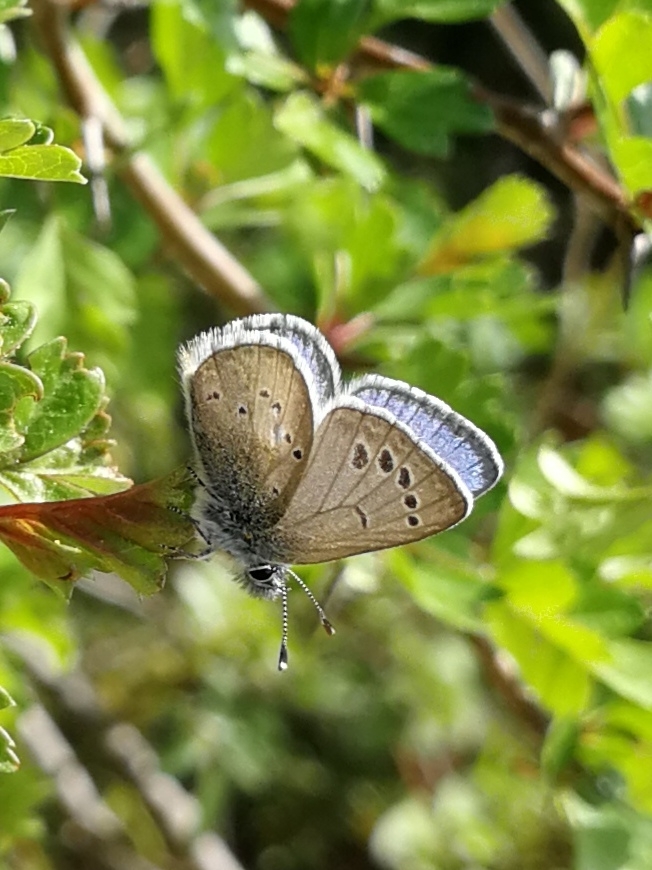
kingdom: Animalia
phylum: Arthropoda
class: Insecta
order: Lepidoptera
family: Lycaenidae
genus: Glaucopsyche
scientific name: Glaucopsyche melanops
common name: Black-eyed blue
